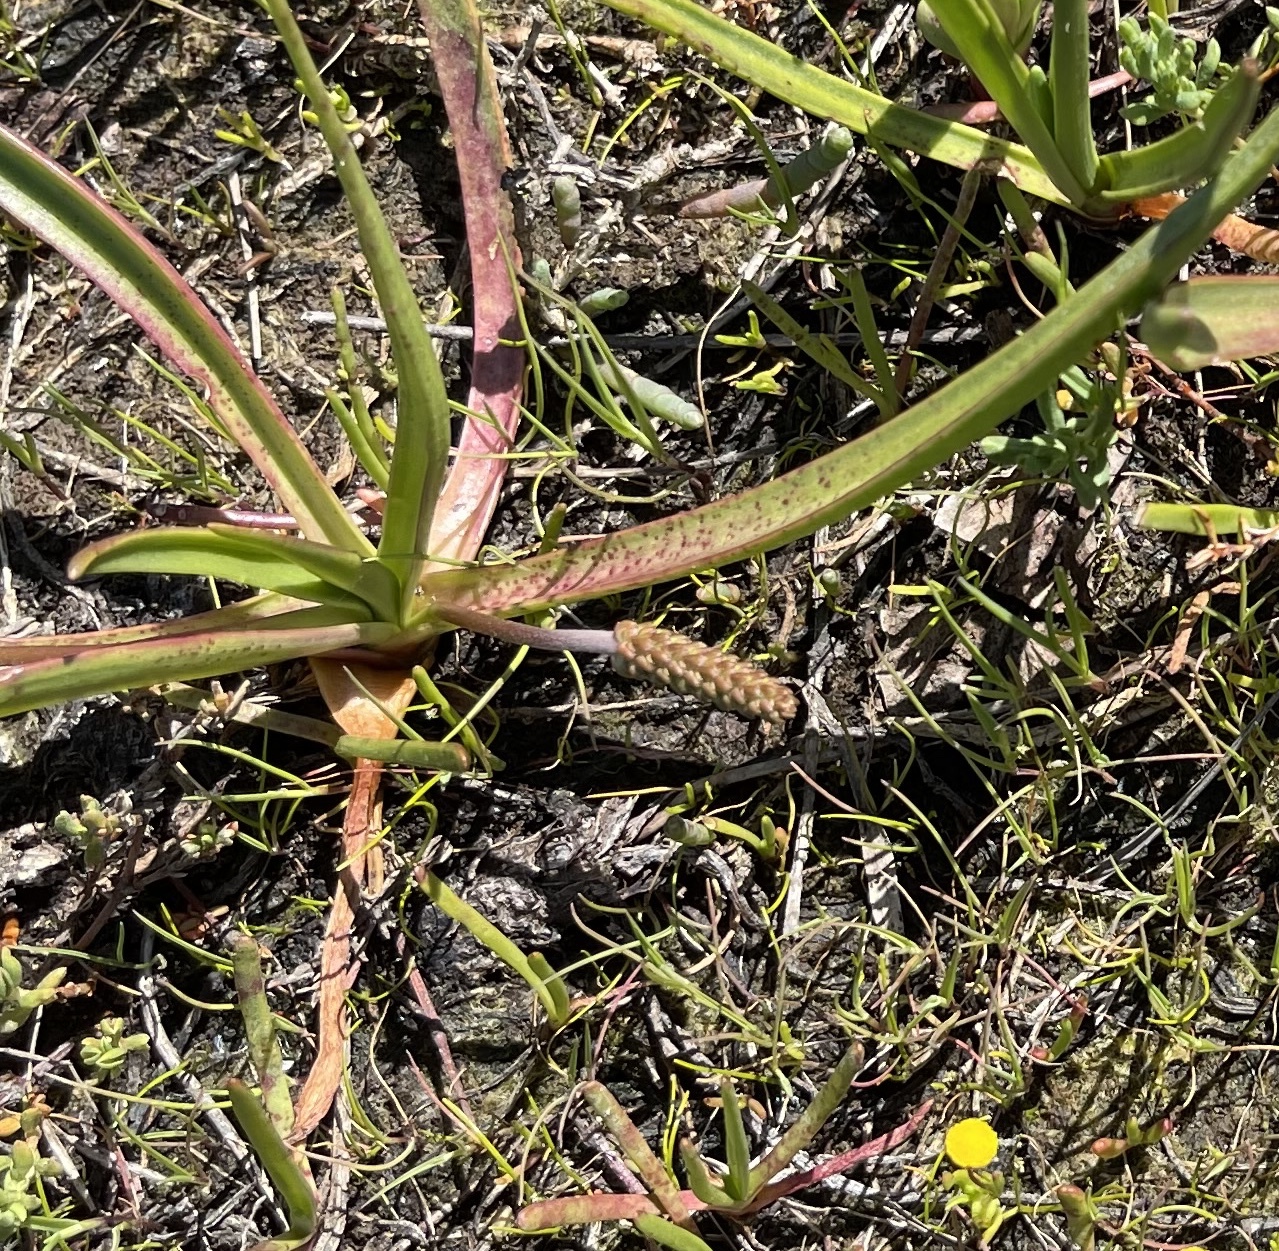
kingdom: Plantae
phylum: Tracheophyta
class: Magnoliopsida
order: Lamiales
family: Plantaginaceae
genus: Plantago
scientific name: Plantago maritima
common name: Sea plantain
